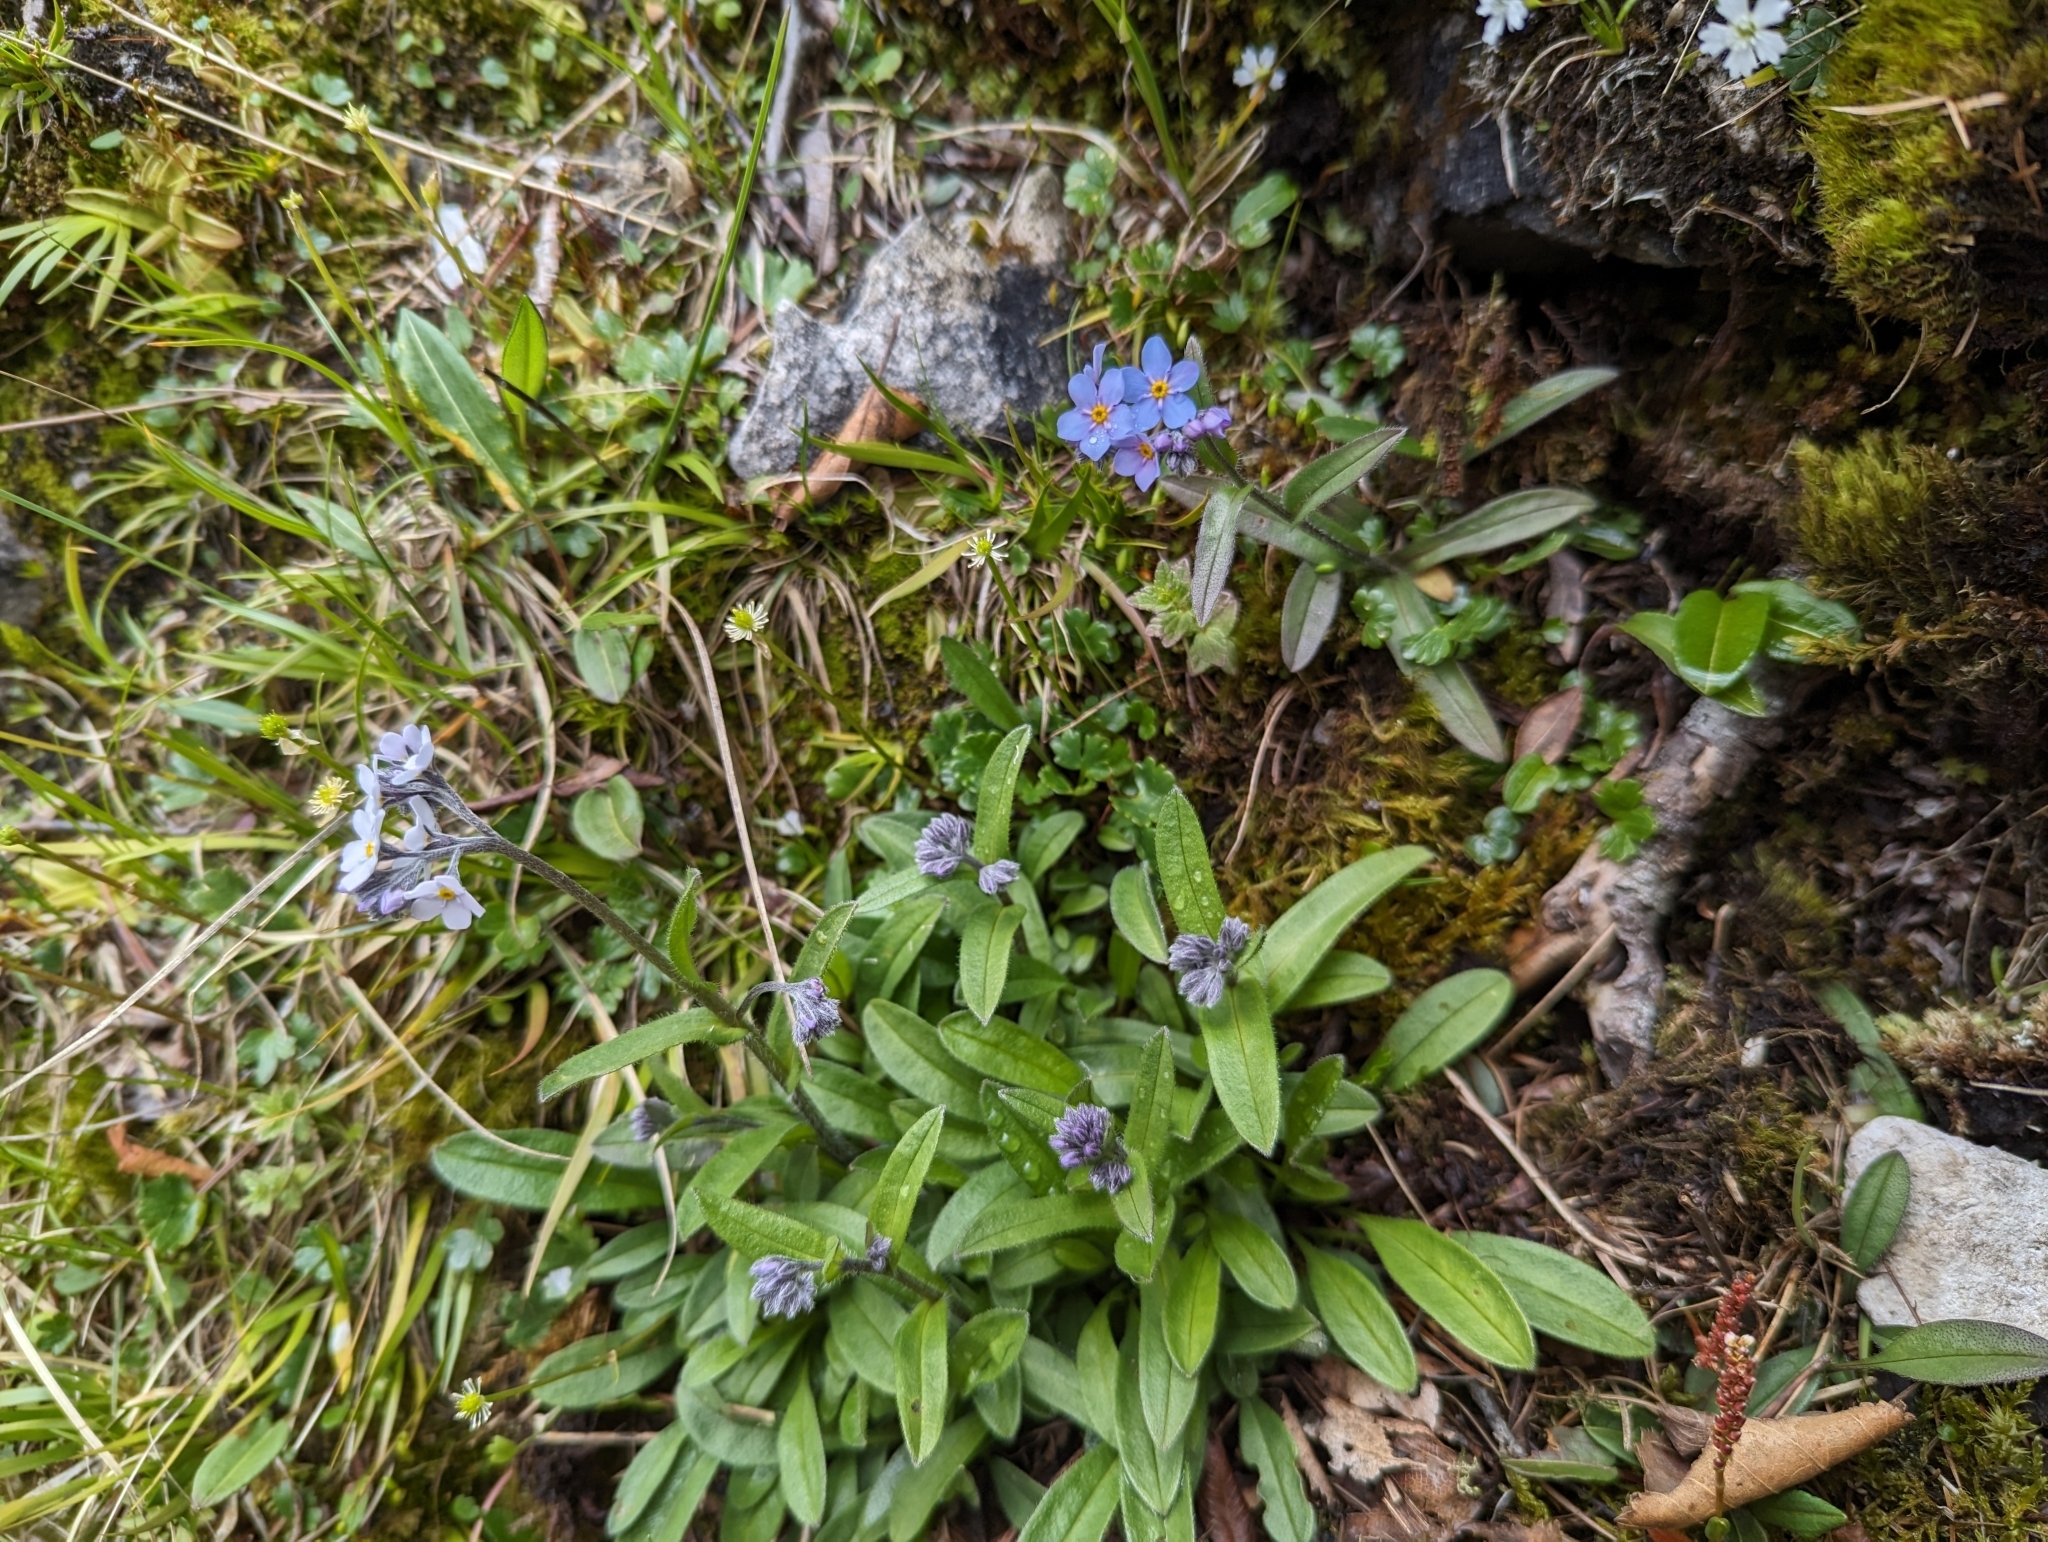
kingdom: Plantae
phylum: Tracheophyta
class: Magnoliopsida
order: Boraginales
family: Boraginaceae
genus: Myosotis
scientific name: Myosotis alpestris
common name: Alpine forget-me-not
